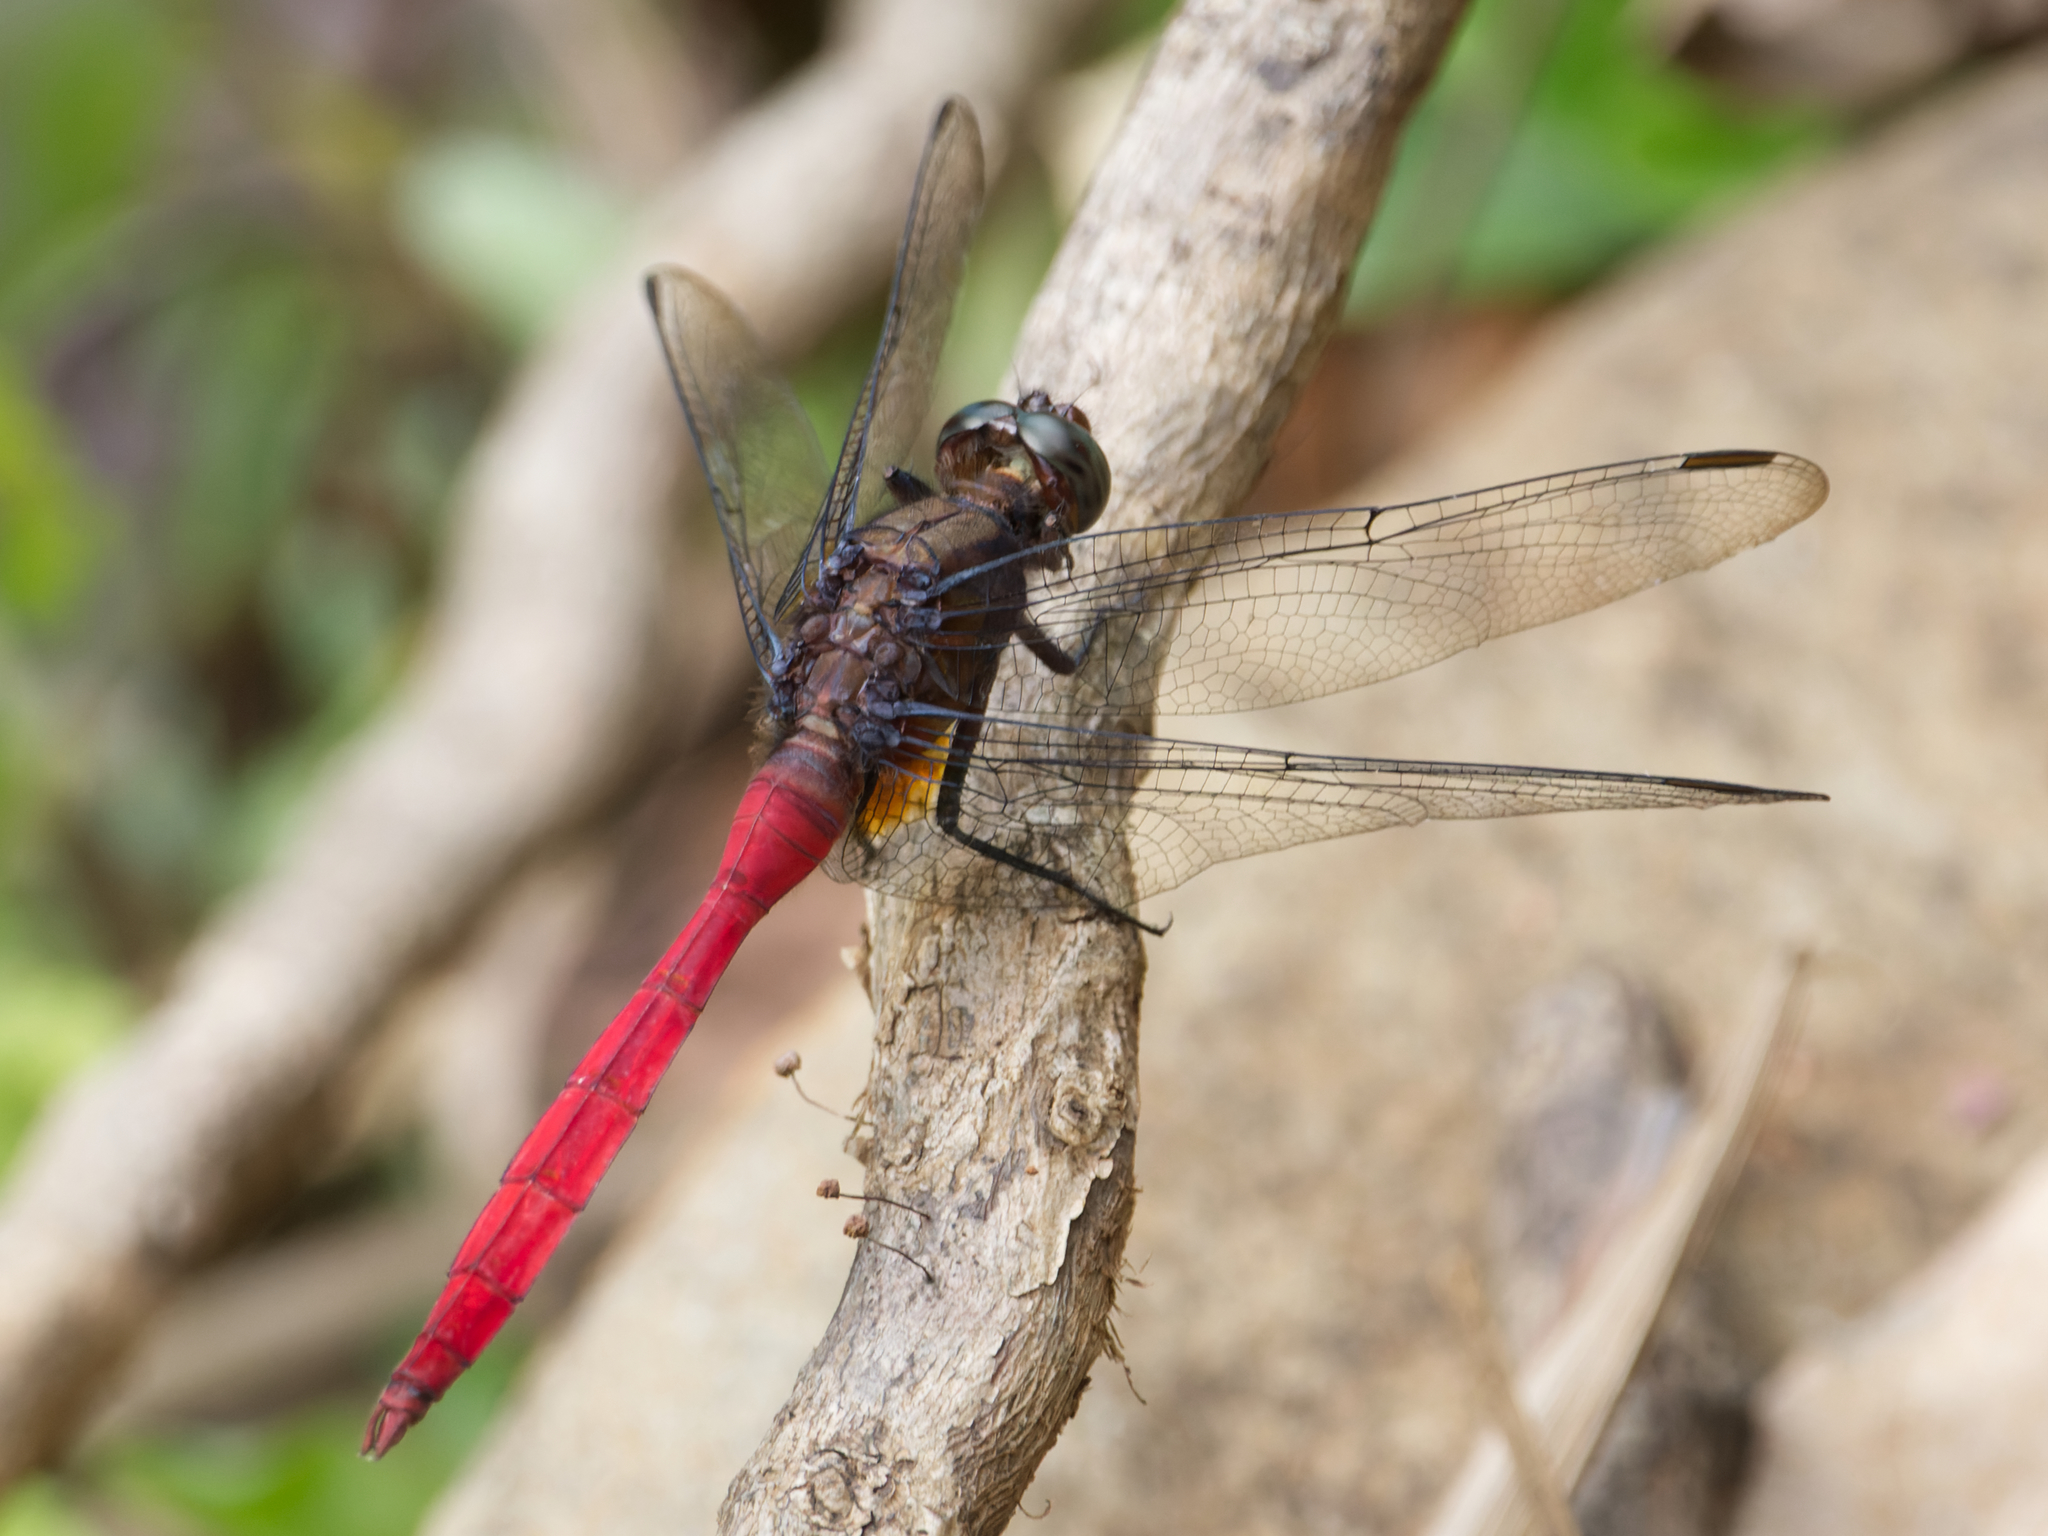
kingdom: Animalia
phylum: Arthropoda
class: Insecta
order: Odonata
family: Libellulidae
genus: Orthetrum
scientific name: Orthetrum villosovittatum
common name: Firery skimmer
